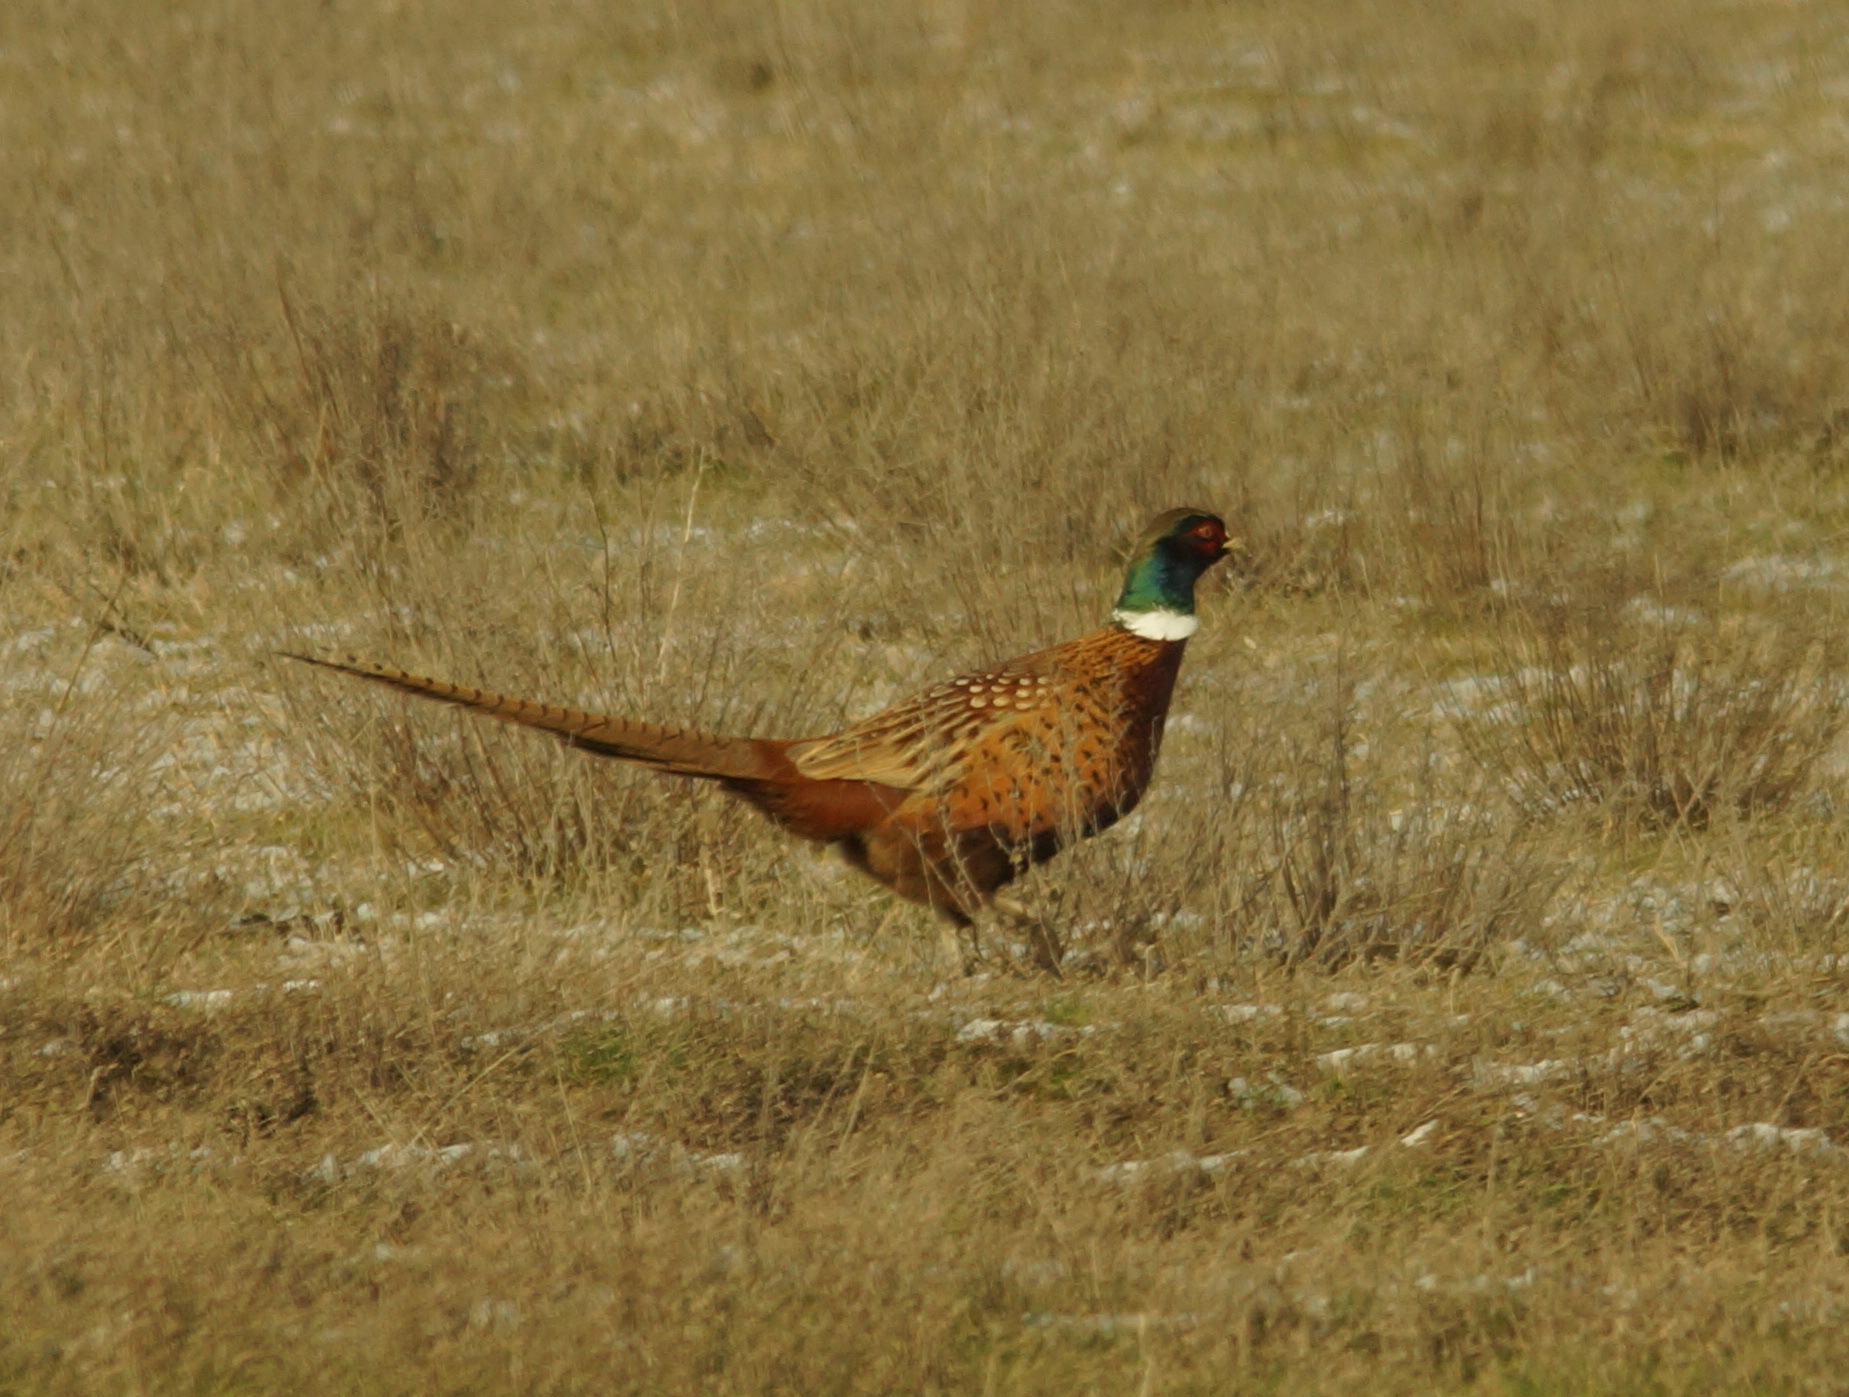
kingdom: Animalia
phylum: Chordata
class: Aves
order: Galliformes
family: Phasianidae
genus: Phasianus
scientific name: Phasianus colchicus
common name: Common pheasant
